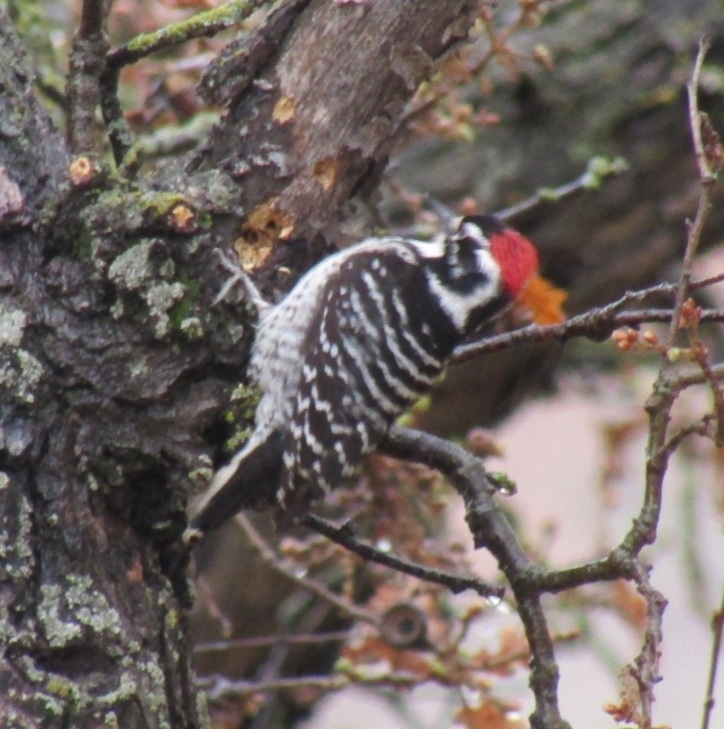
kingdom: Animalia
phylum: Chordata
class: Aves
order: Piciformes
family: Picidae
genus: Dryobates
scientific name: Dryobates nuttallii
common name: Nuttall's woodpecker
